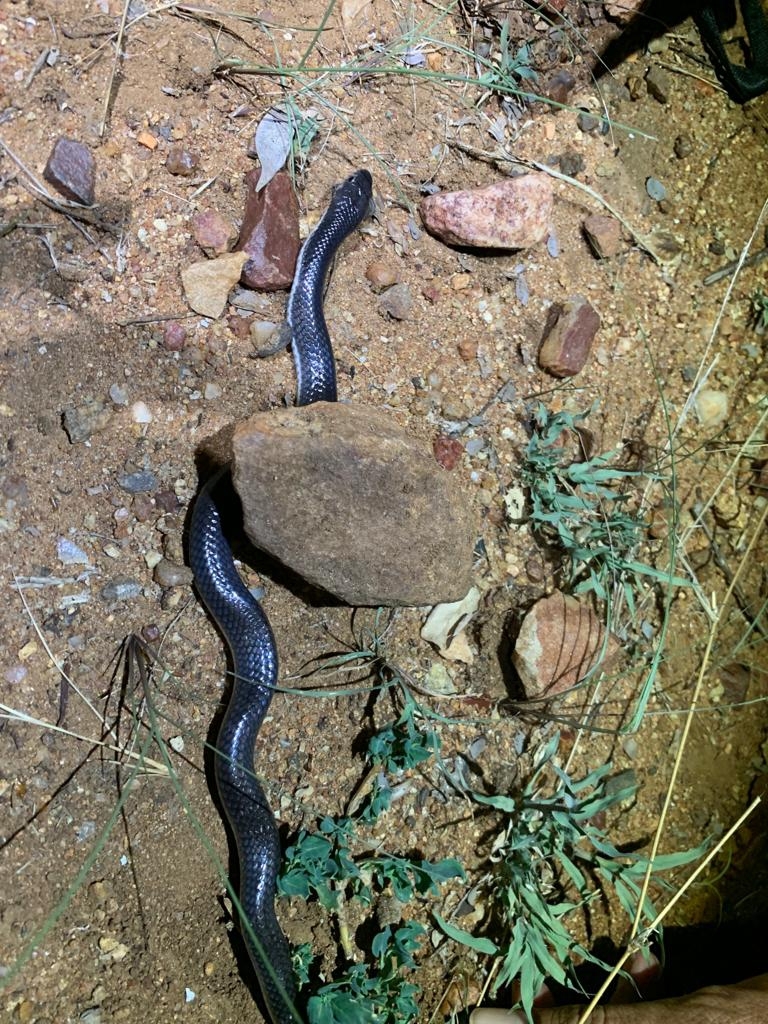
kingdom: Animalia
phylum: Chordata
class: Squamata
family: Elapidae
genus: Elapsoidea
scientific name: Elapsoidea boulengeri
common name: Boulenger's garter snake
